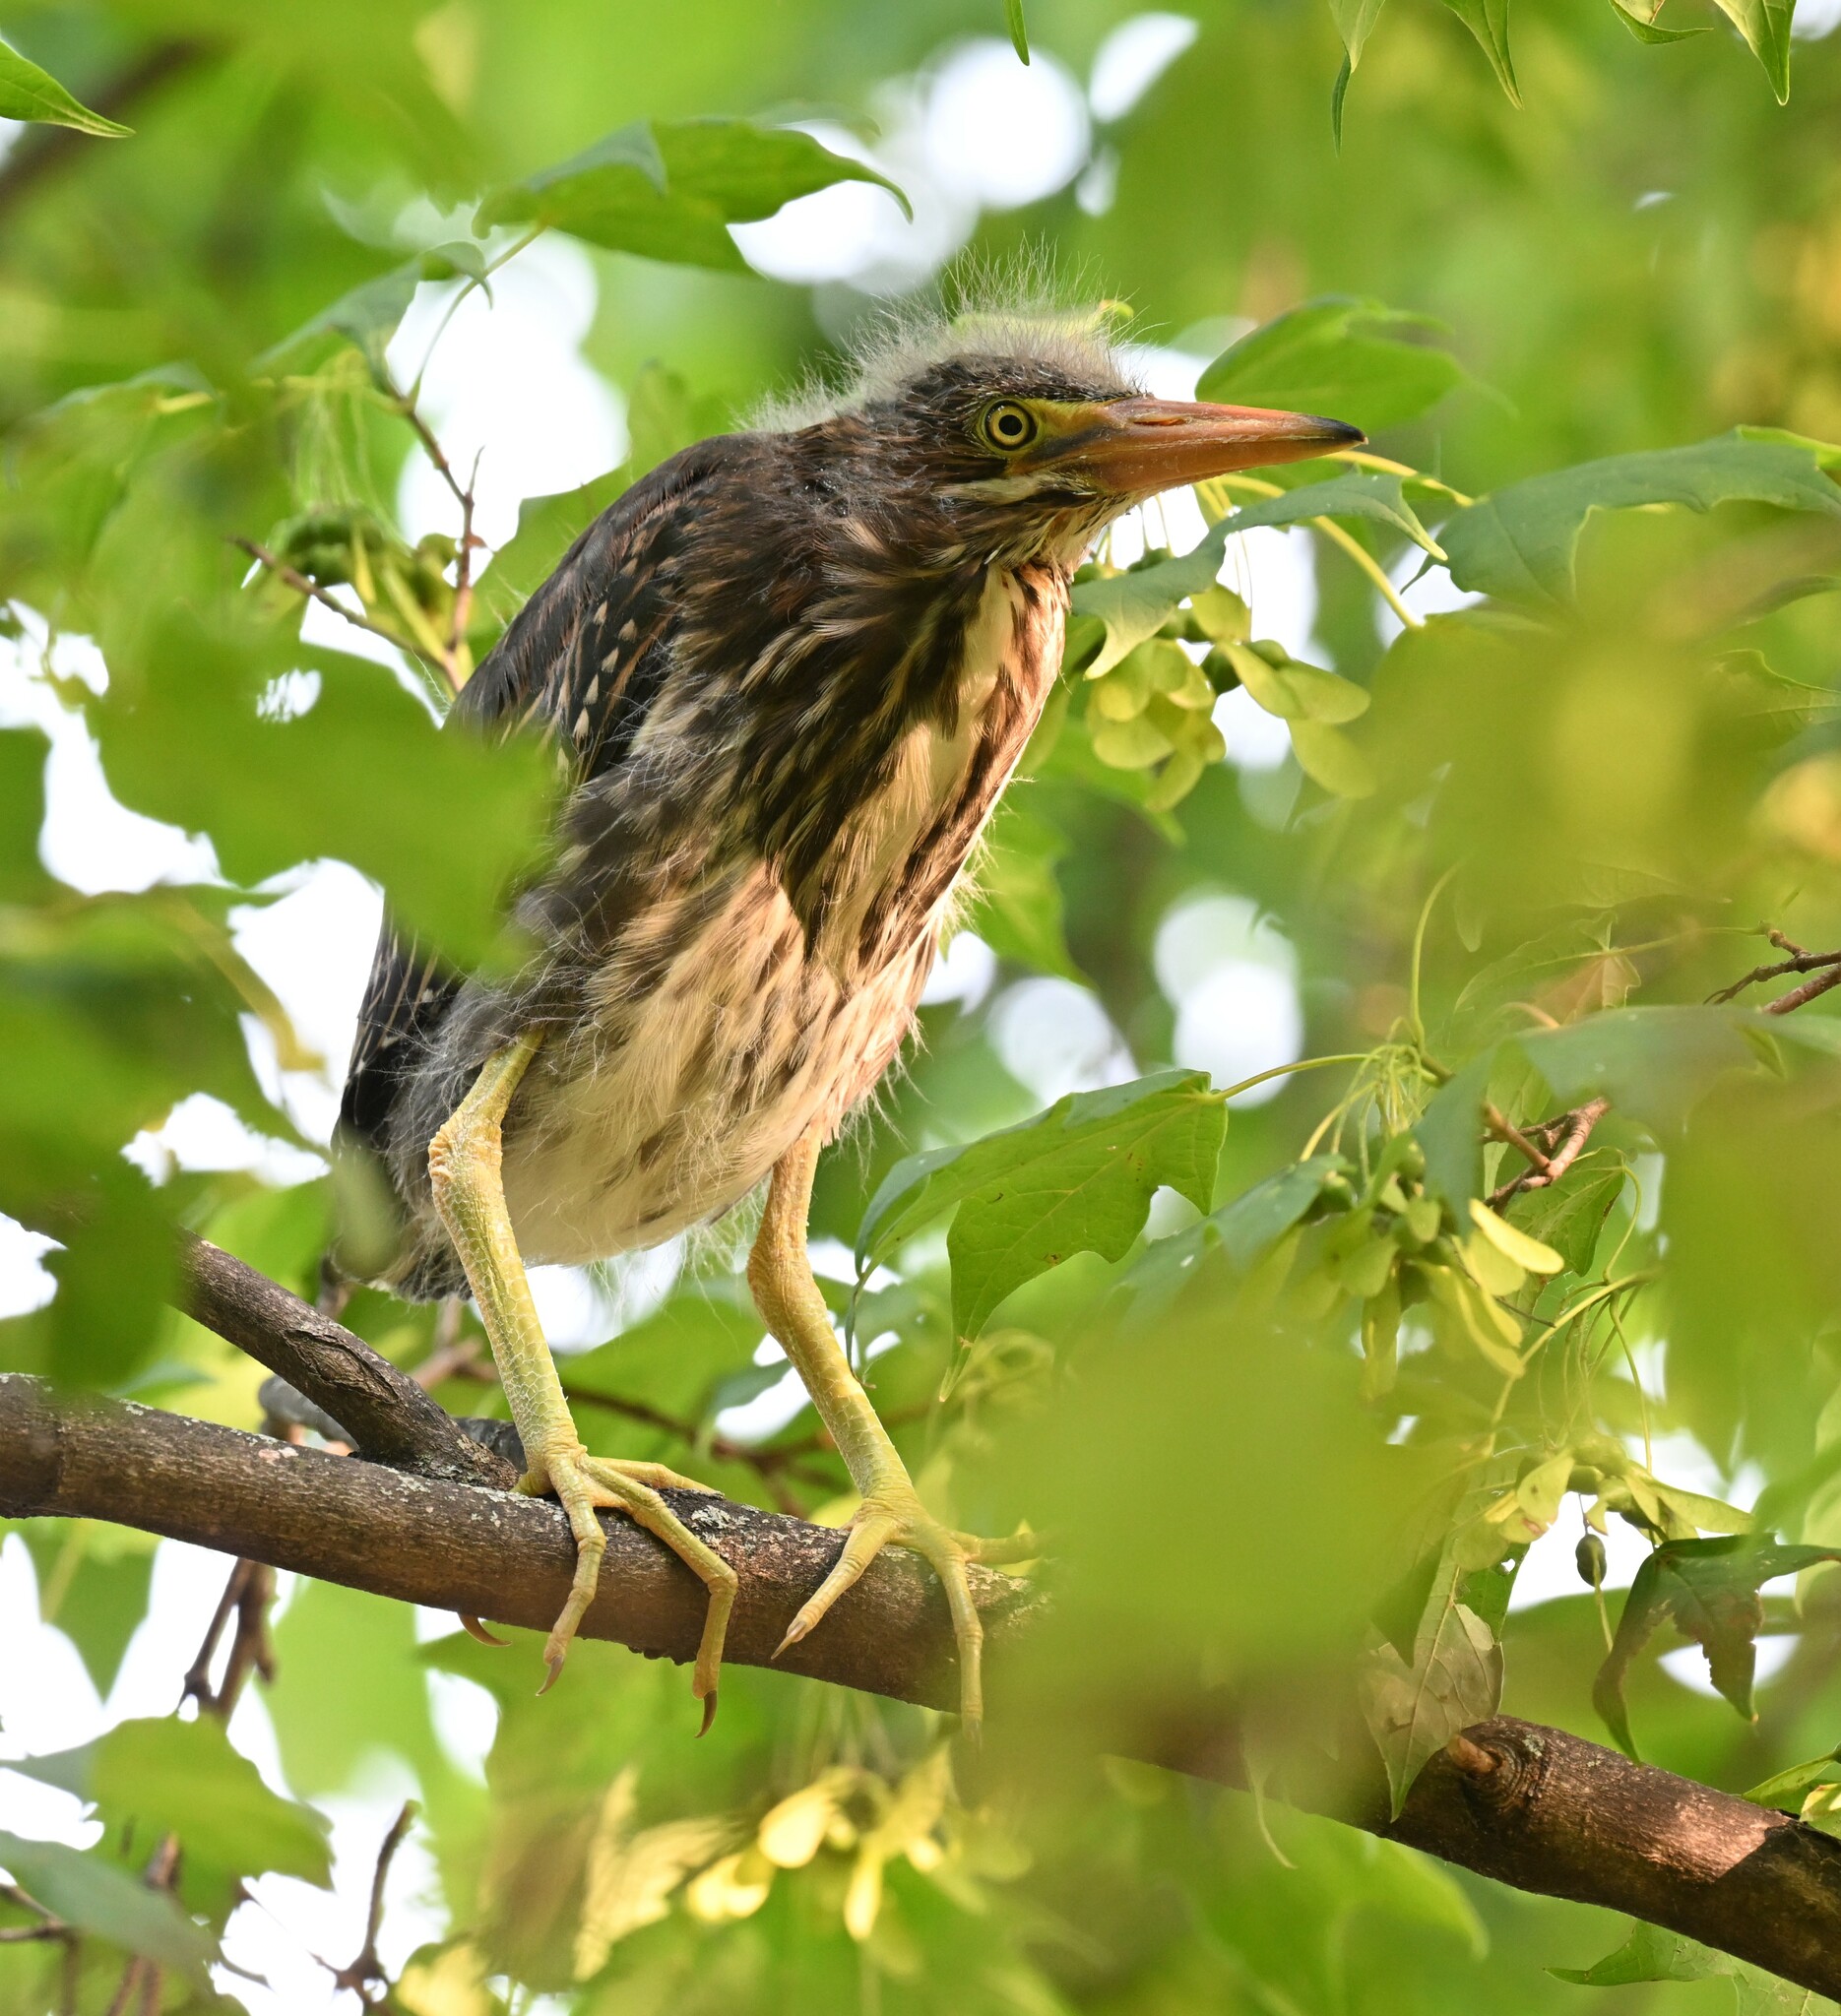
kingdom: Animalia
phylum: Chordata
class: Aves
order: Pelecaniformes
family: Ardeidae
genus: Butorides
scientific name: Butorides virescens
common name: Green heron
